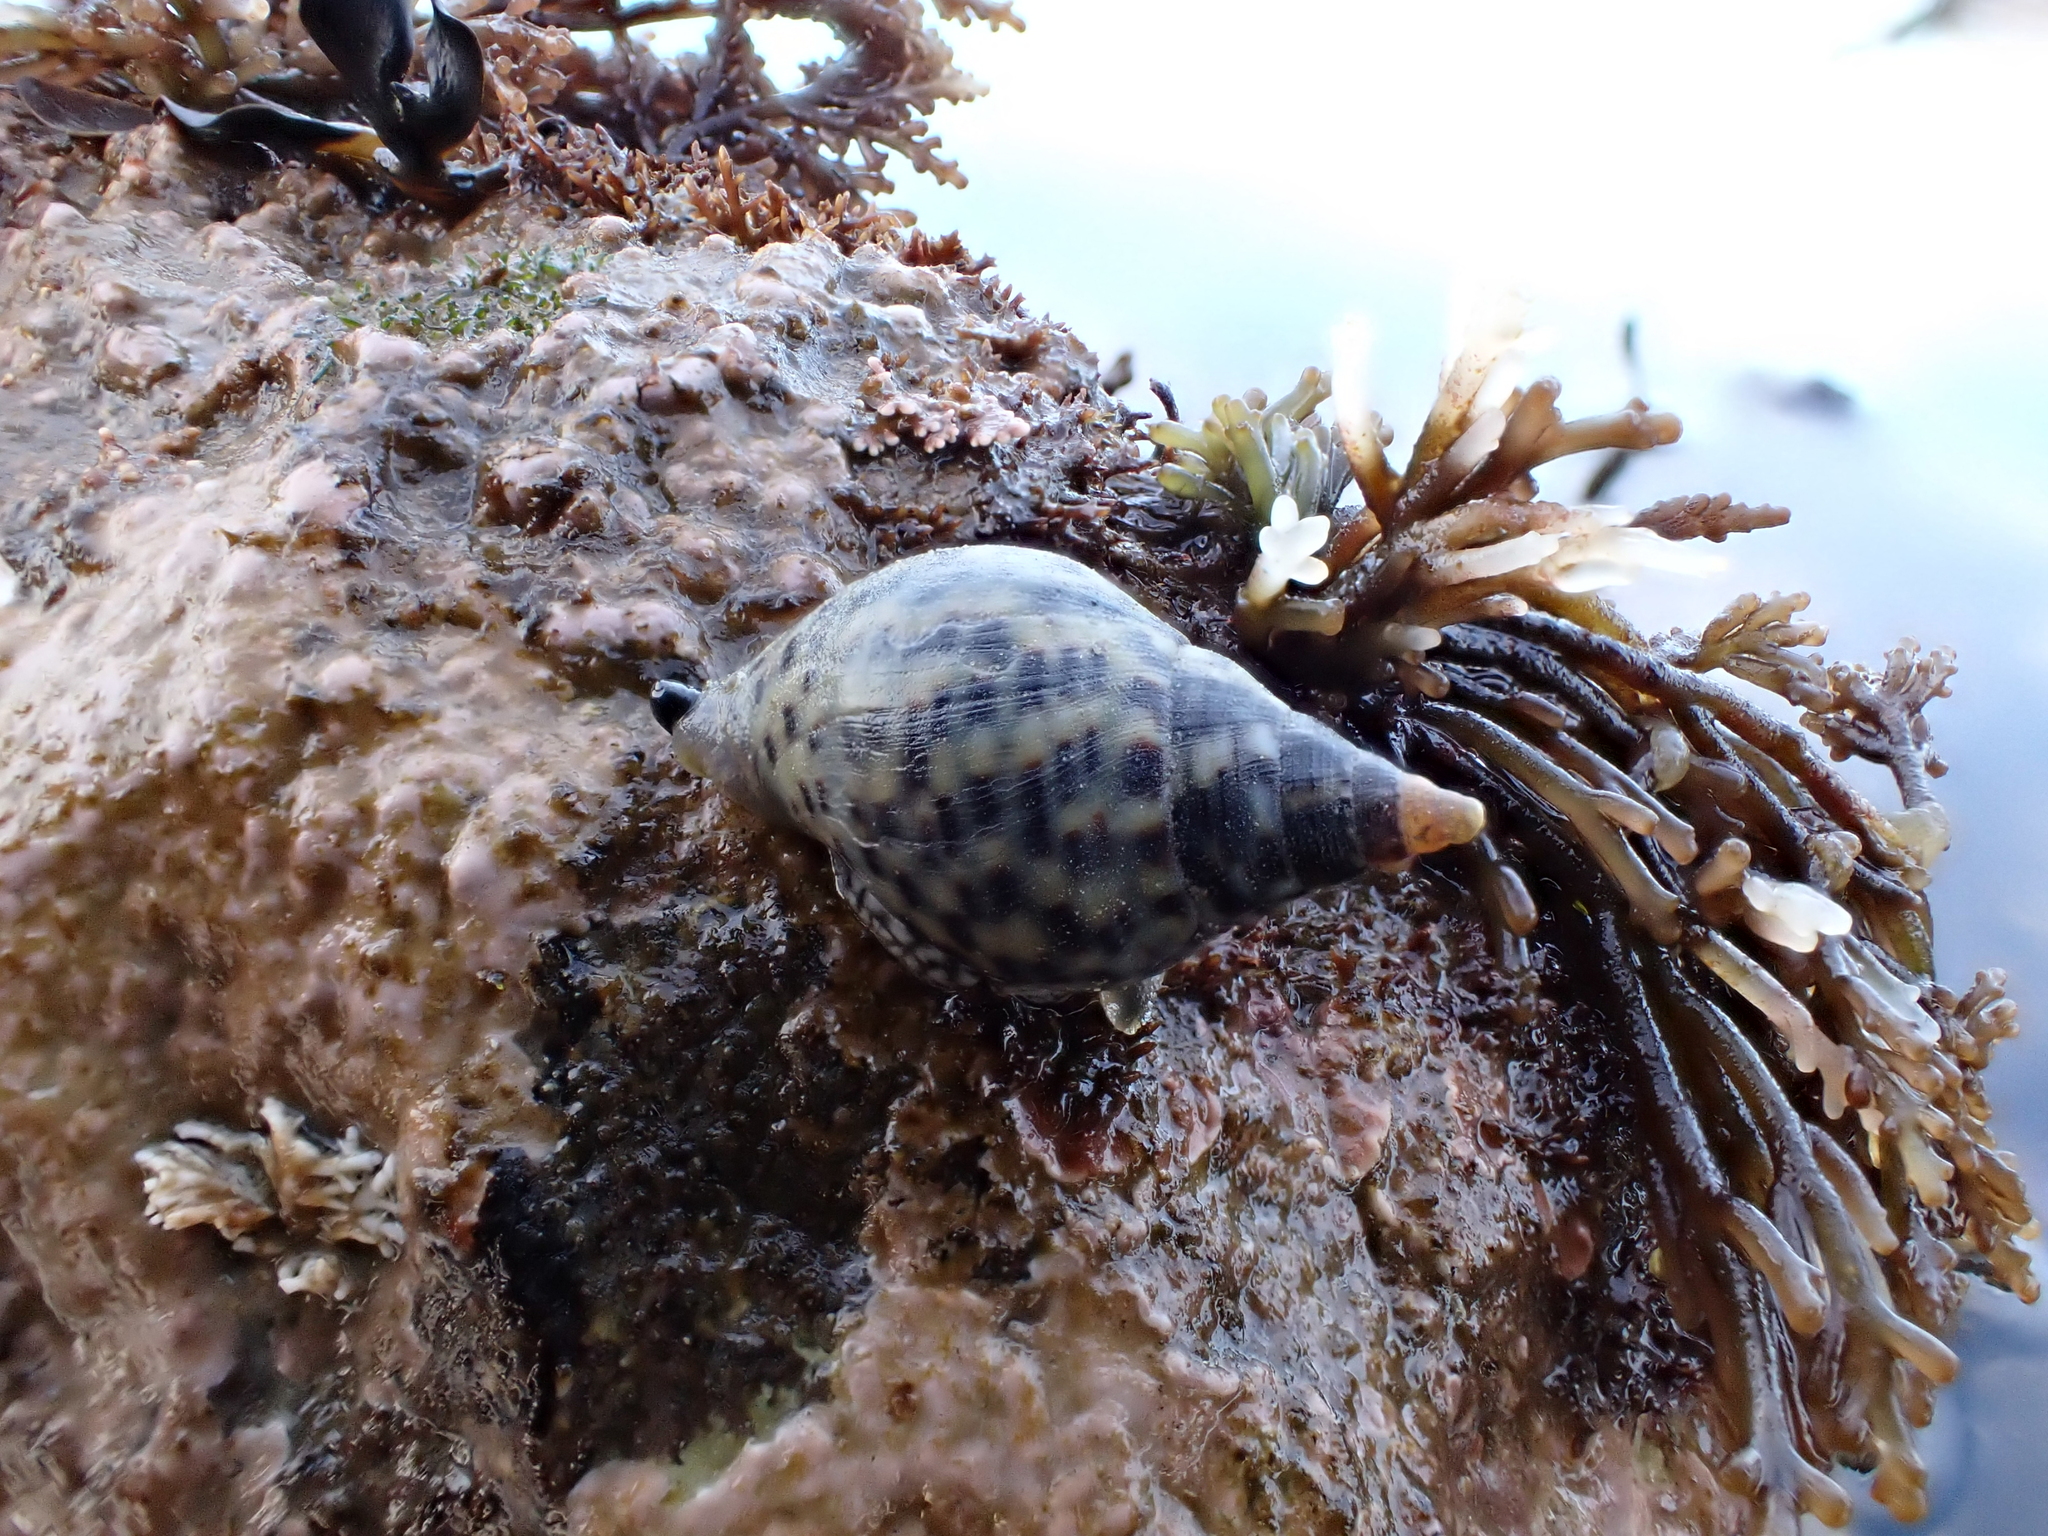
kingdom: Animalia
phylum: Mollusca
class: Gastropoda
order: Neogastropoda
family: Cominellidae
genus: Cominella
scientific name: Cominella maculosa
